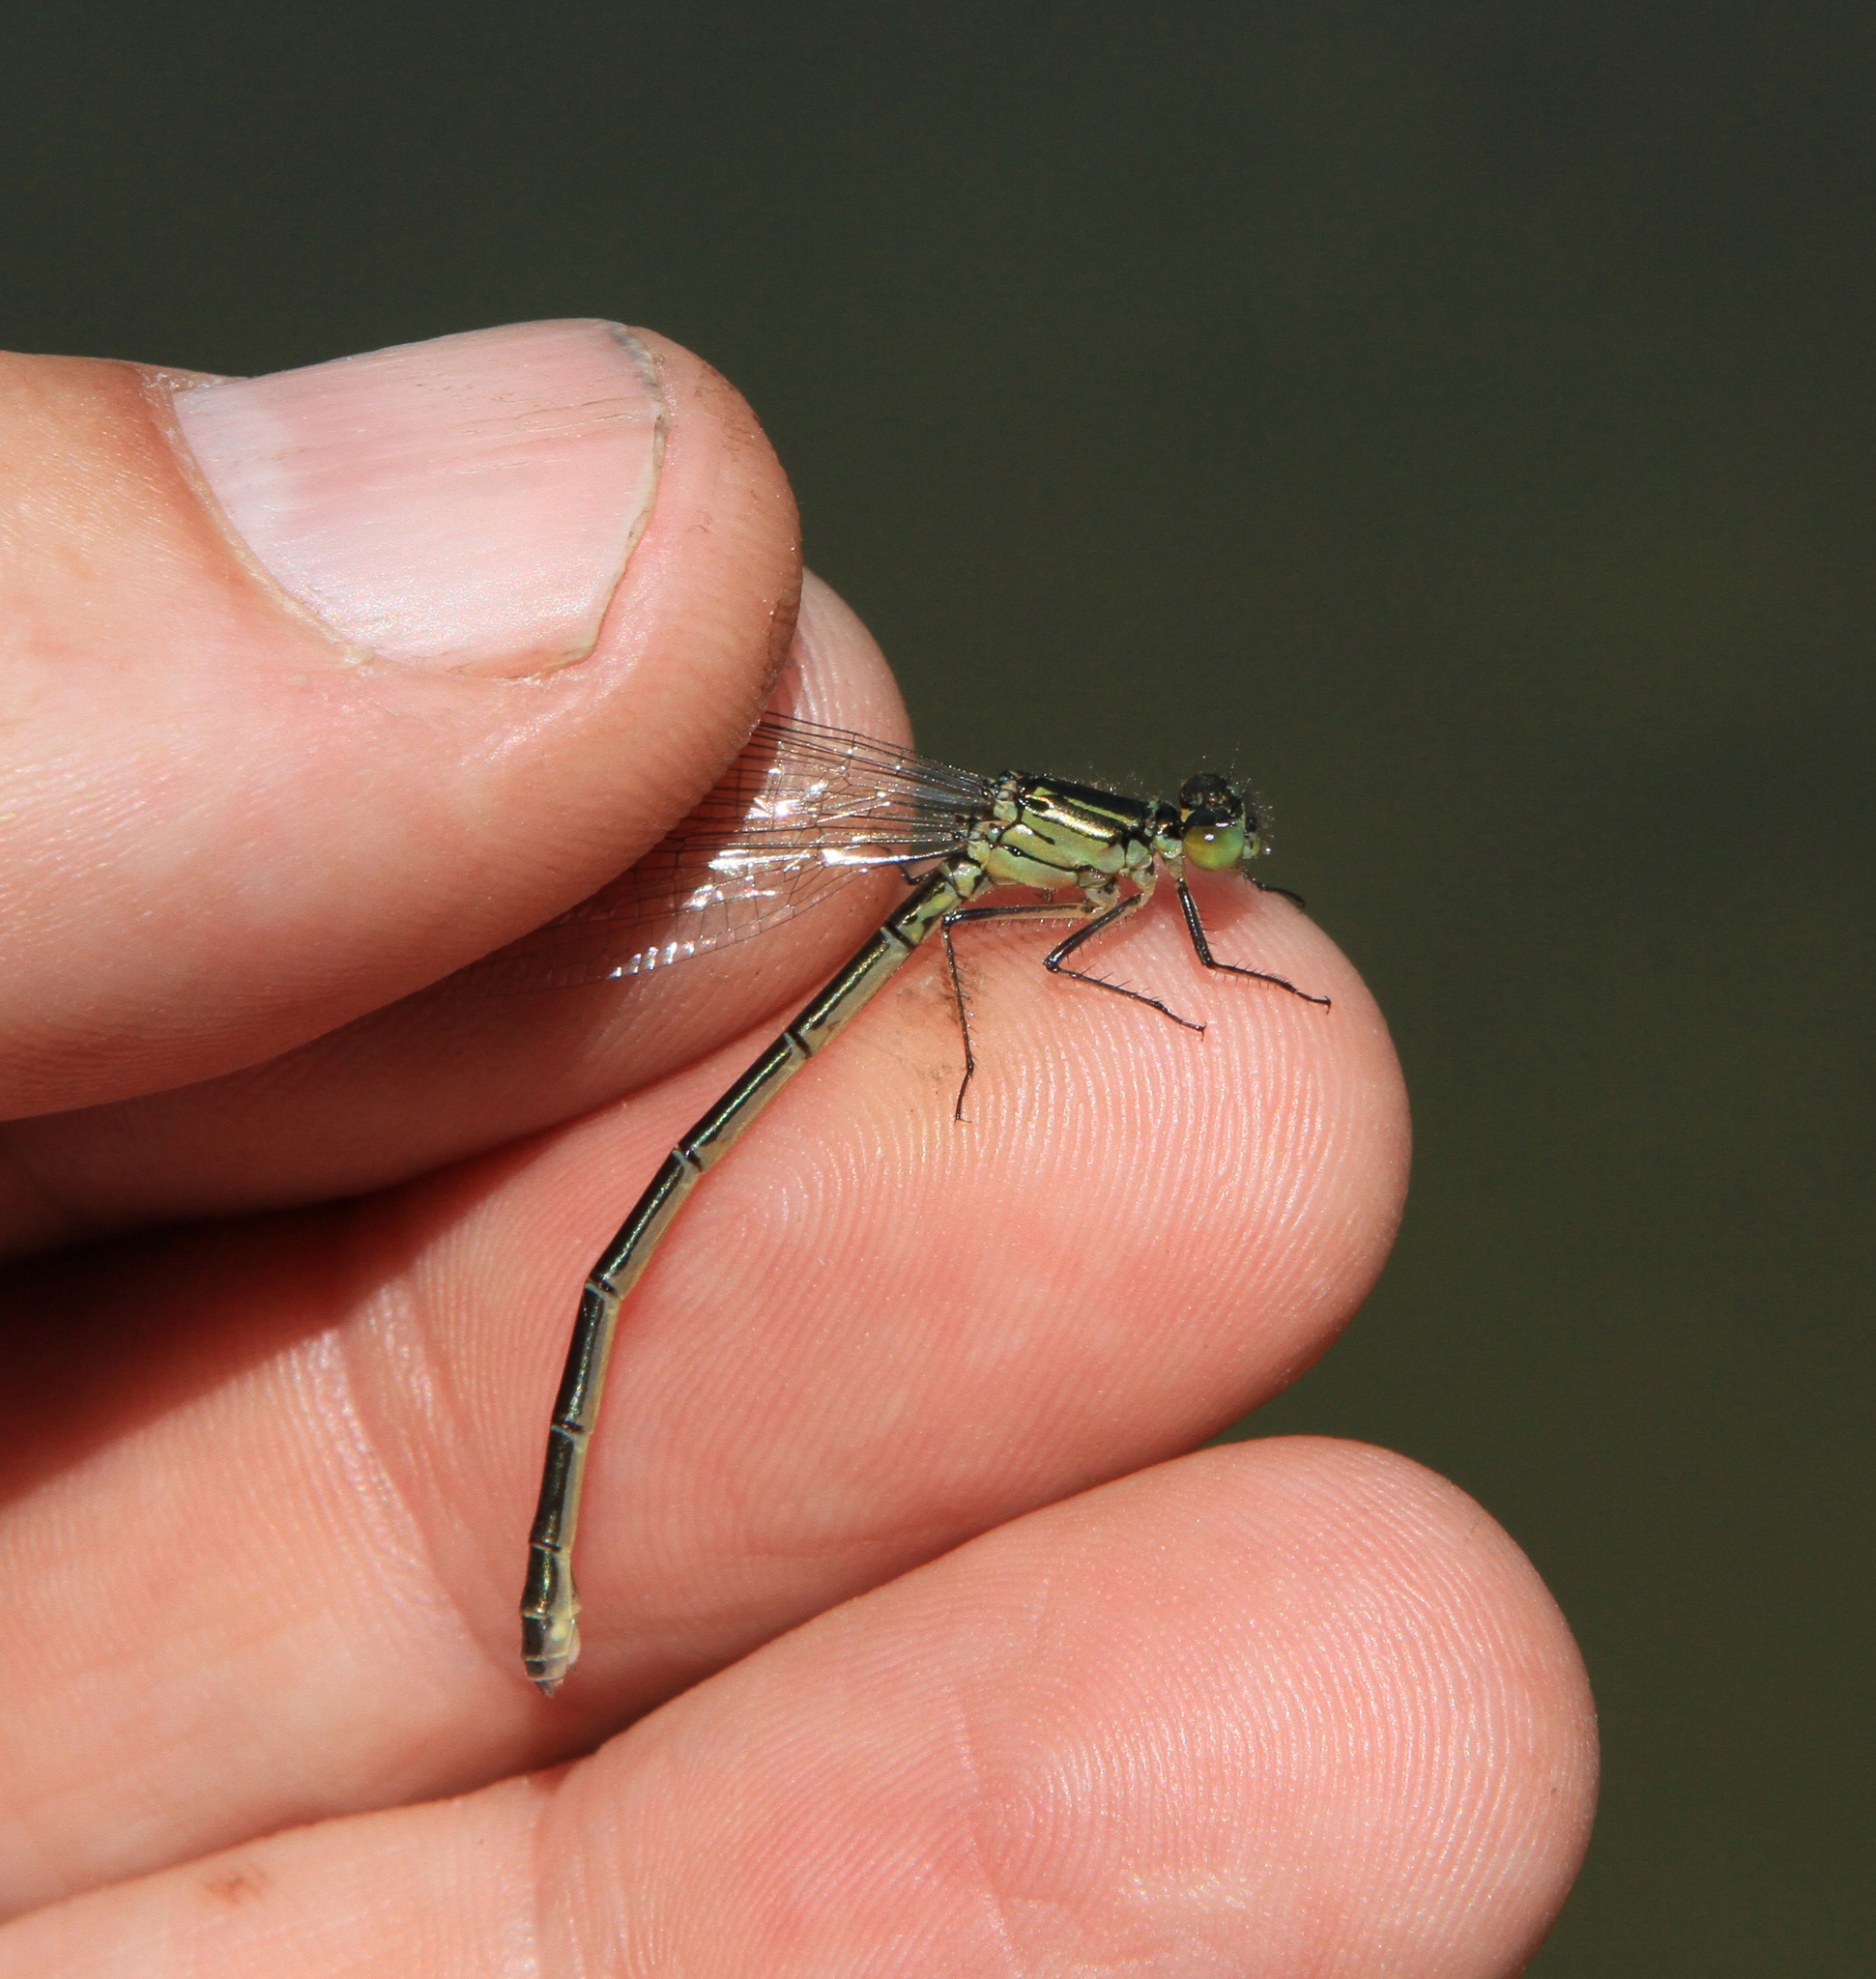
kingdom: Animalia
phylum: Arthropoda
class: Insecta
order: Odonata
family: Coenagrionidae
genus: Erythromma
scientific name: Erythromma najas
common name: Red-eyed damselfly
